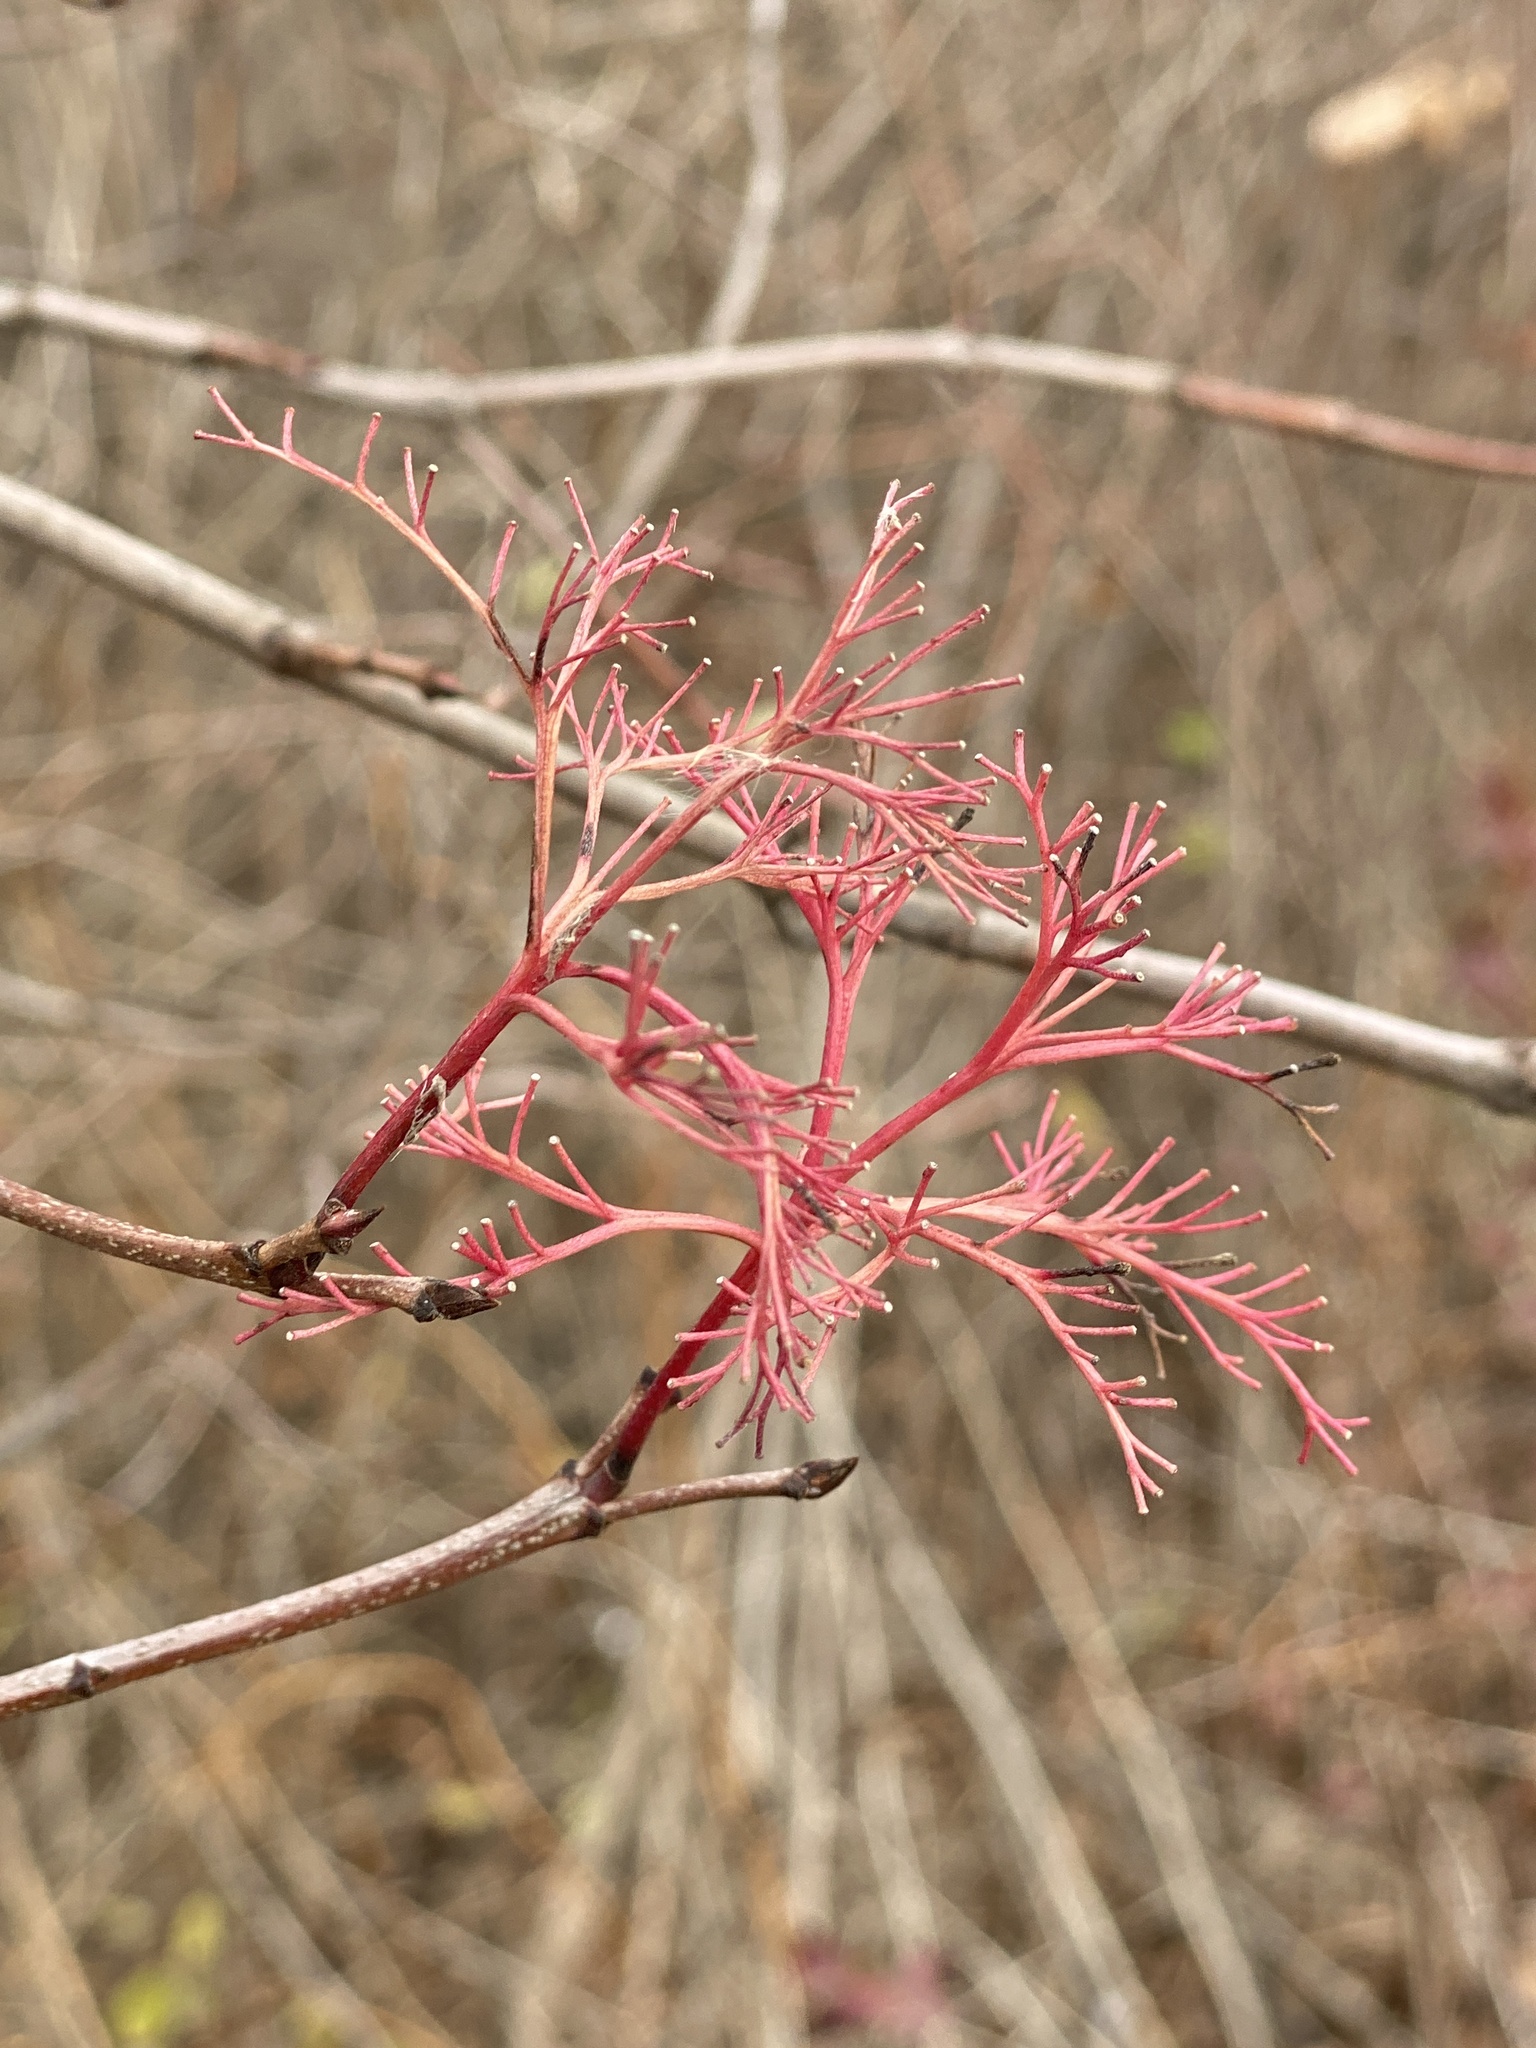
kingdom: Plantae
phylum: Tracheophyta
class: Magnoliopsida
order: Cornales
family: Cornaceae
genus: Cornus
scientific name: Cornus racemosa
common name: Panicled dogwood
